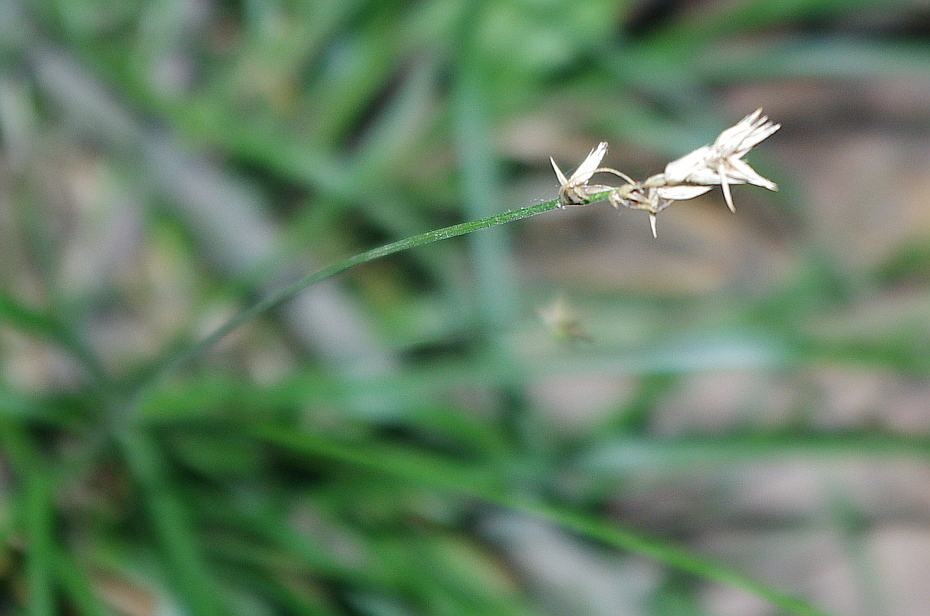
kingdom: Plantae
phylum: Tracheophyta
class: Liliopsida
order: Poales
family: Cyperaceae
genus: Carex
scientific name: Carex spicata
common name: Spiked sedge
